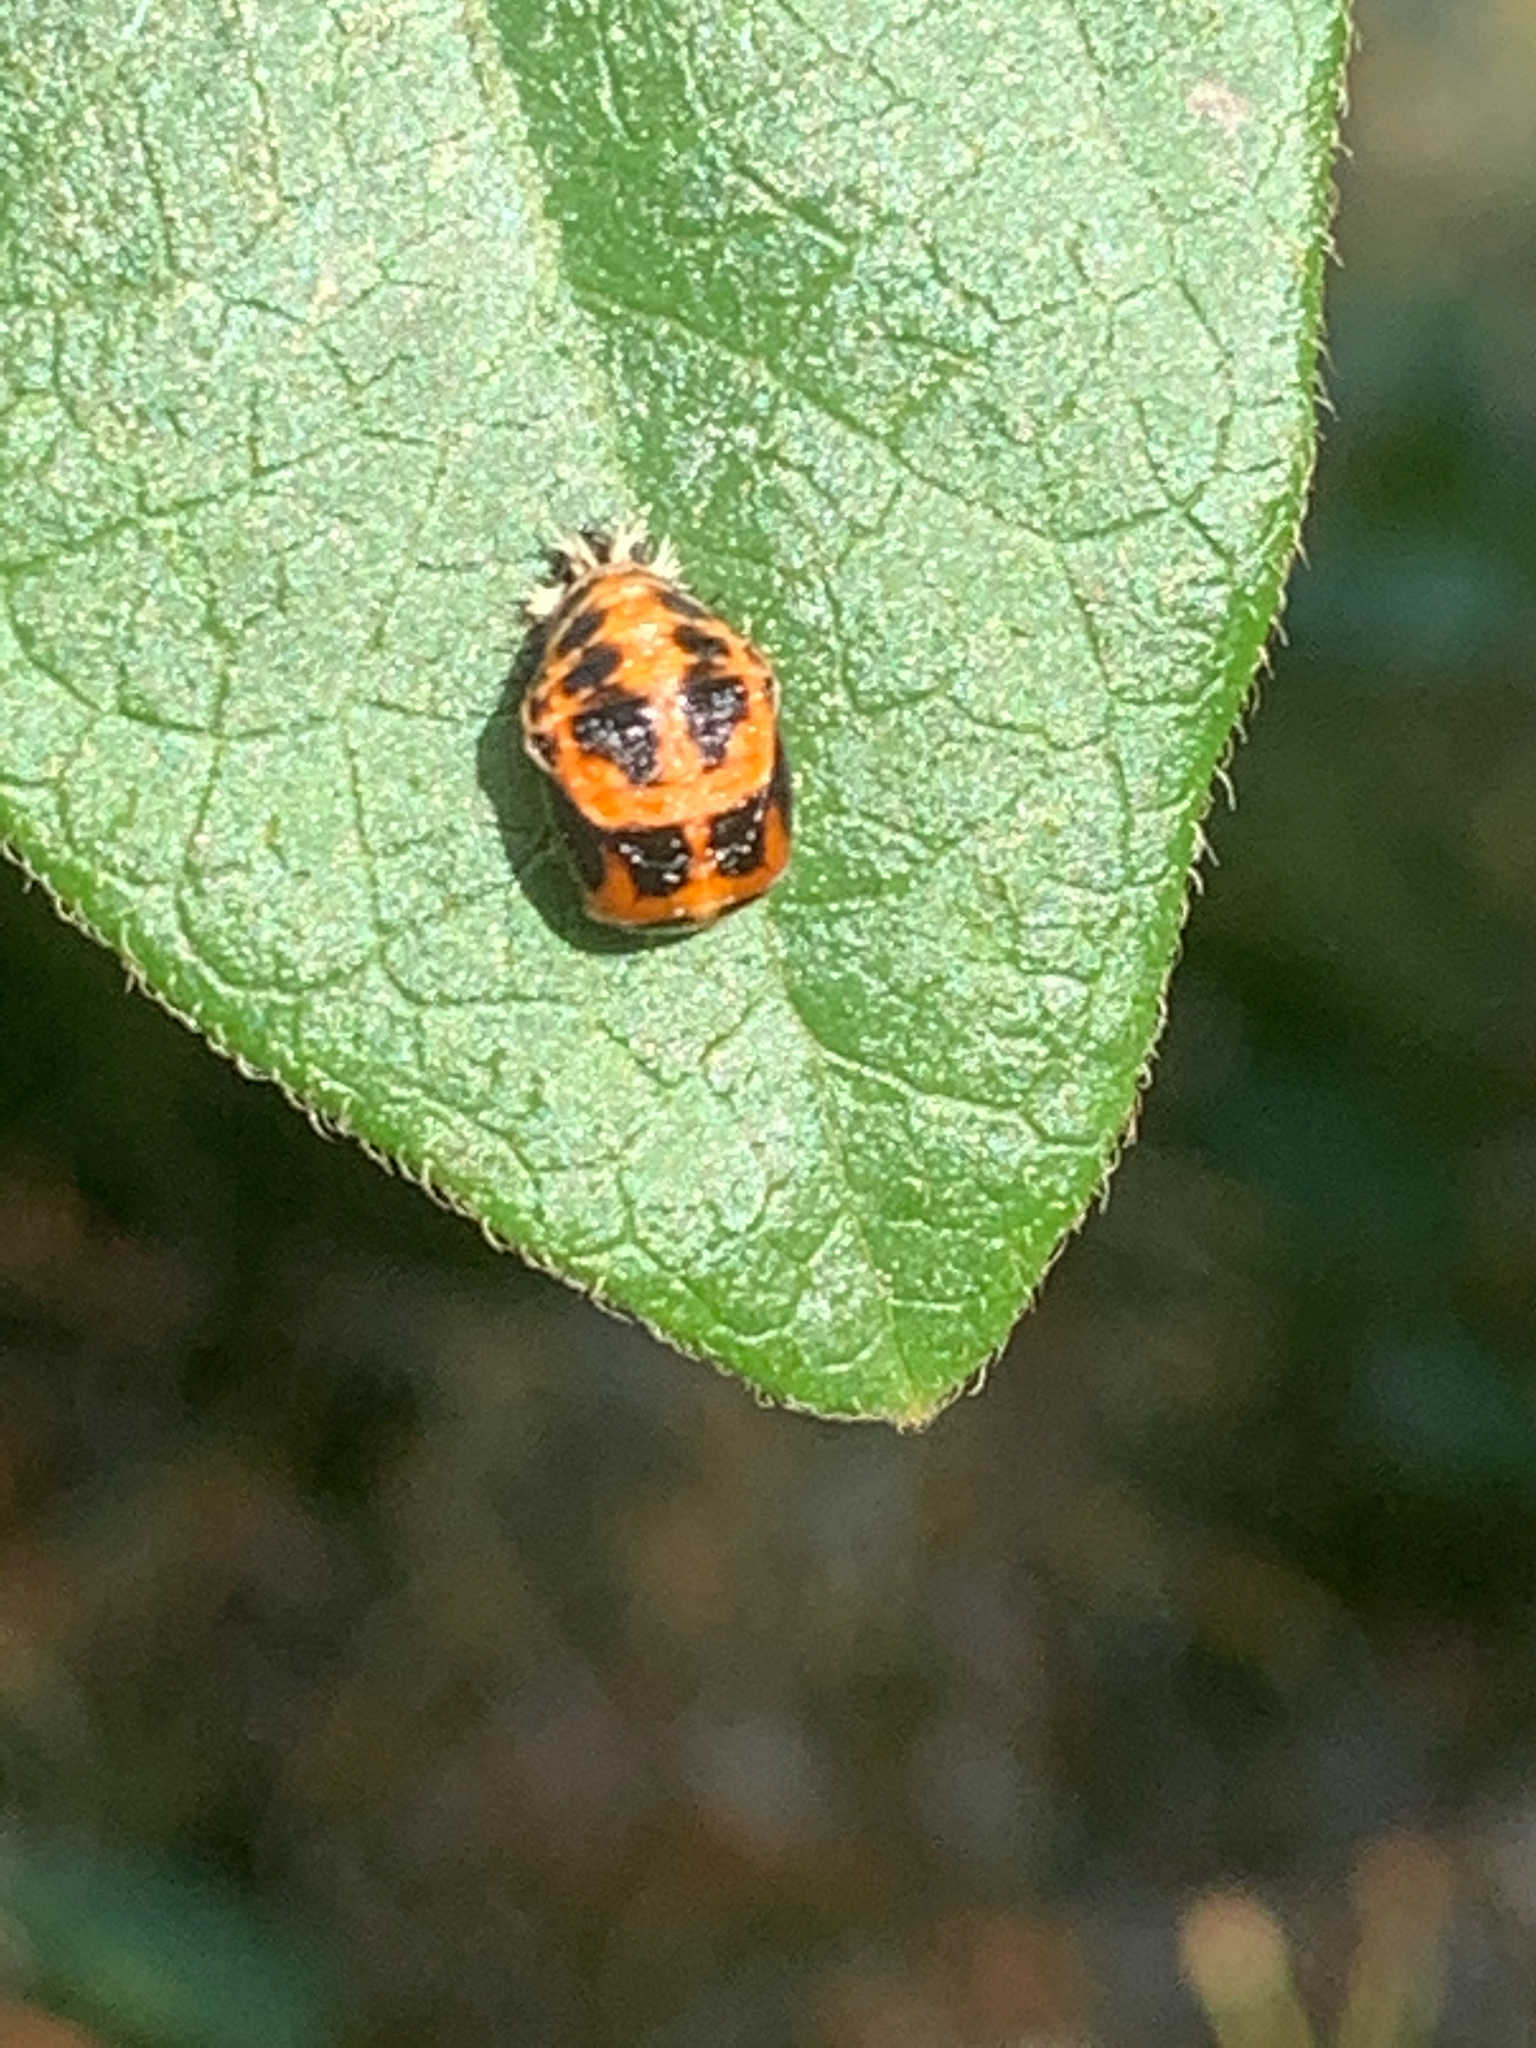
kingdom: Animalia
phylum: Arthropoda
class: Insecta
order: Coleoptera
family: Coccinellidae
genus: Harmonia
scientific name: Harmonia axyridis
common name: Harlequin ladybird
